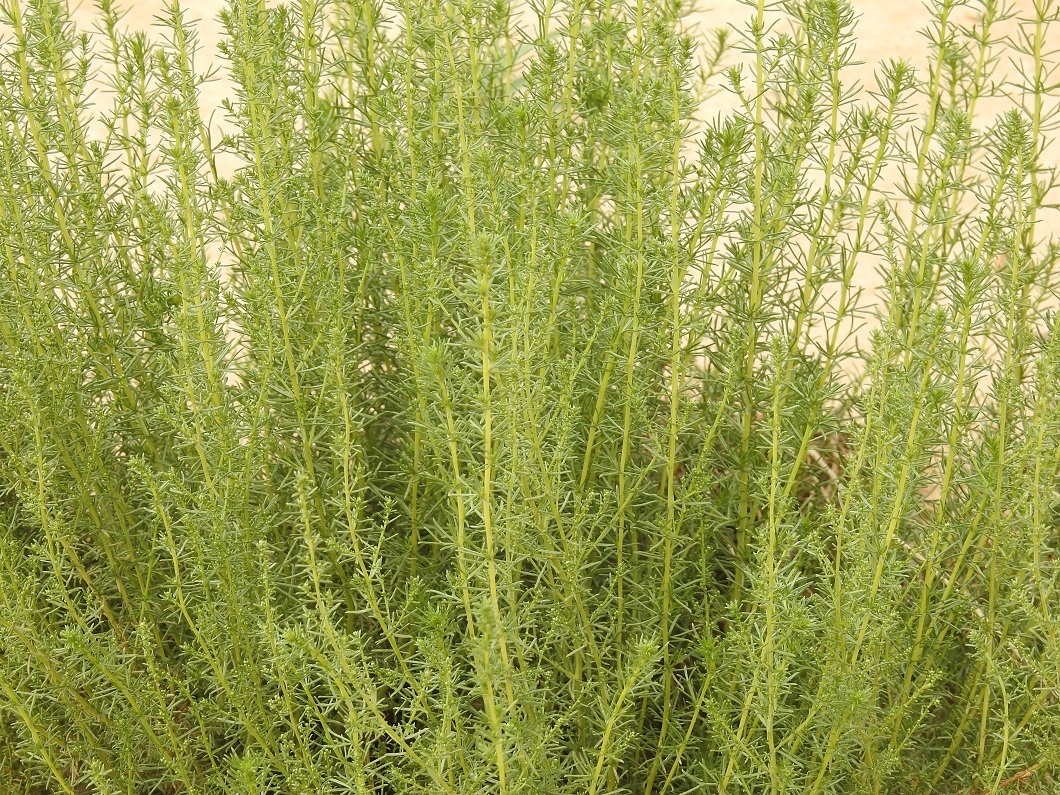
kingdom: Plantae
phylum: Tracheophyta
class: Magnoliopsida
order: Asterales
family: Asteraceae
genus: Artemisia
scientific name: Artemisia campestris
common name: Field wormwood
